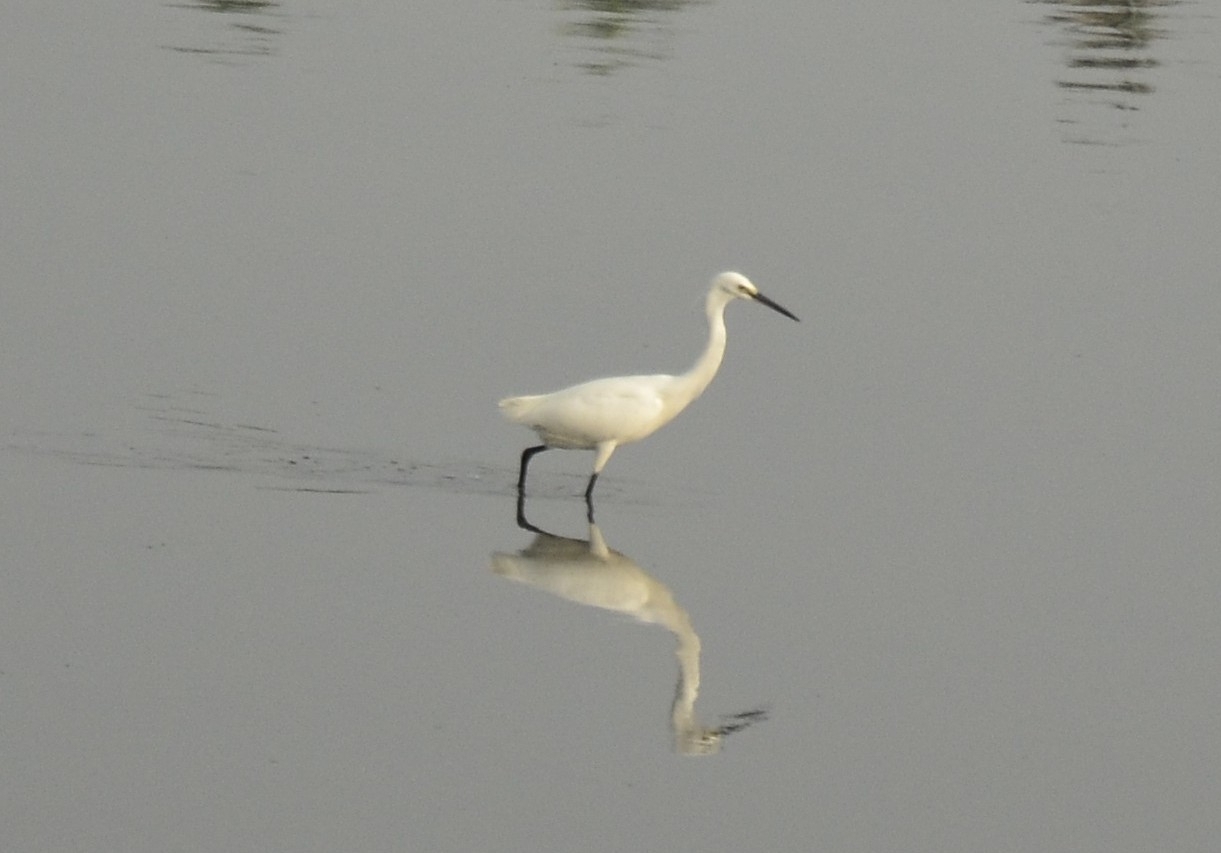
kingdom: Animalia
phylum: Chordata
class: Aves
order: Pelecaniformes
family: Ardeidae
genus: Egretta
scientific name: Egretta garzetta
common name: Little egret
